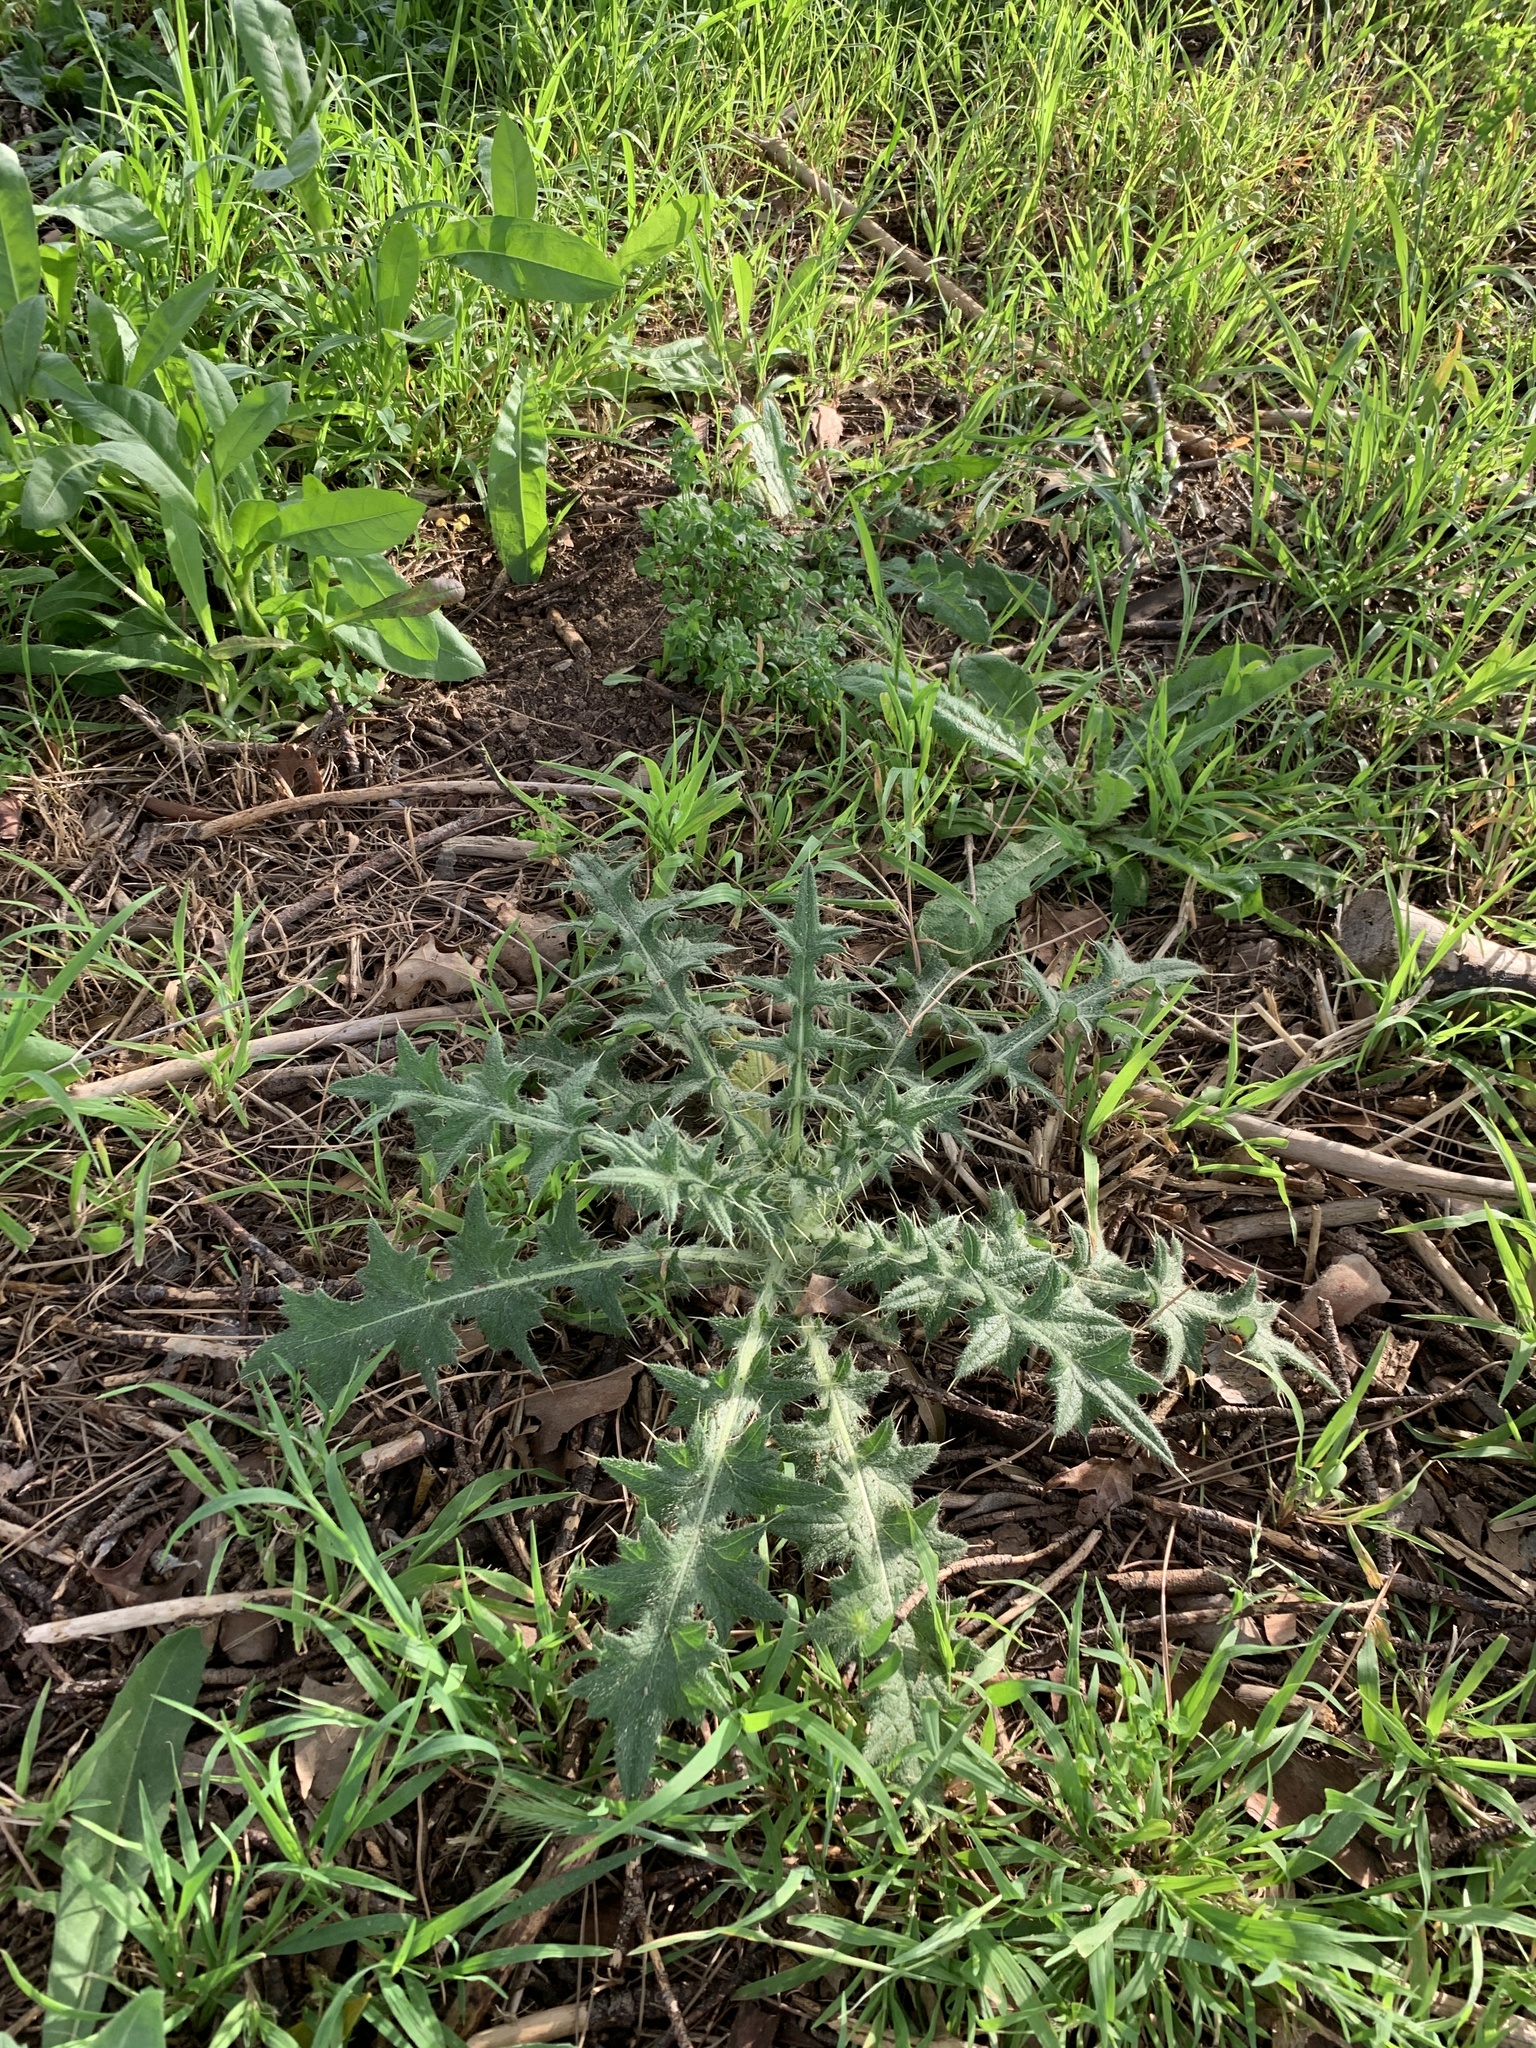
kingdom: Plantae
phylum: Tracheophyta
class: Magnoliopsida
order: Asterales
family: Asteraceae
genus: Cirsium
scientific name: Cirsium vulgare
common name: Bull thistle
